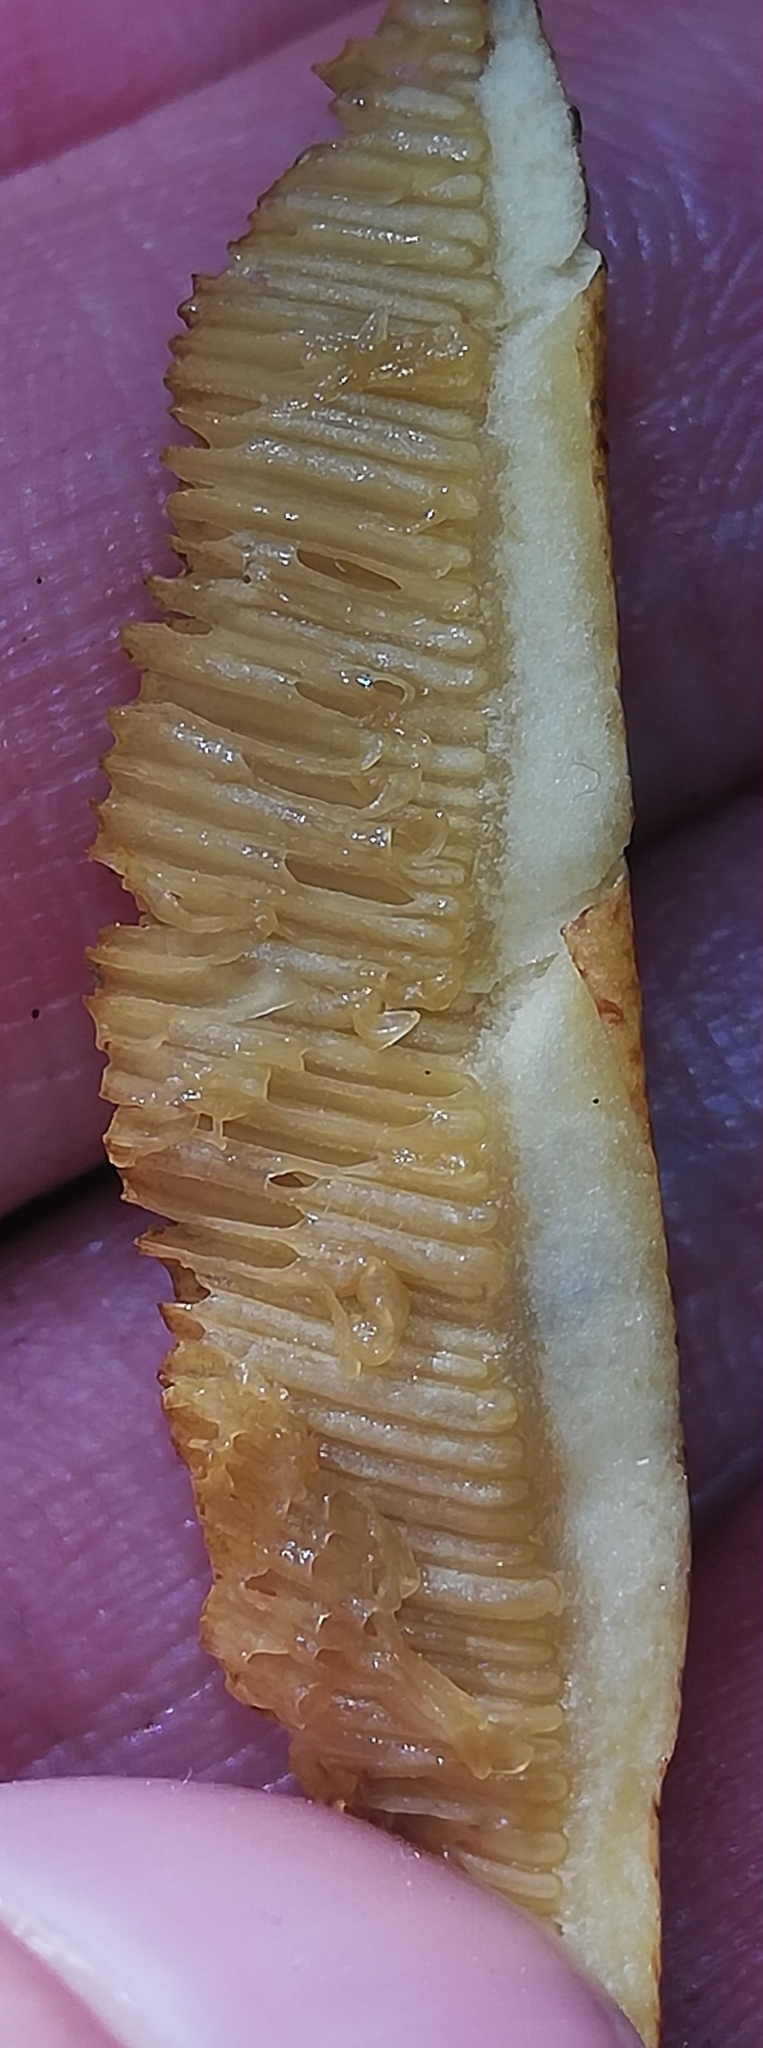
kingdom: Fungi
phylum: Basidiomycota
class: Agaricomycetes
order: Boletales
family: Suillaceae
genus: Suillus
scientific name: Suillus variegatus
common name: Velvet bolete
